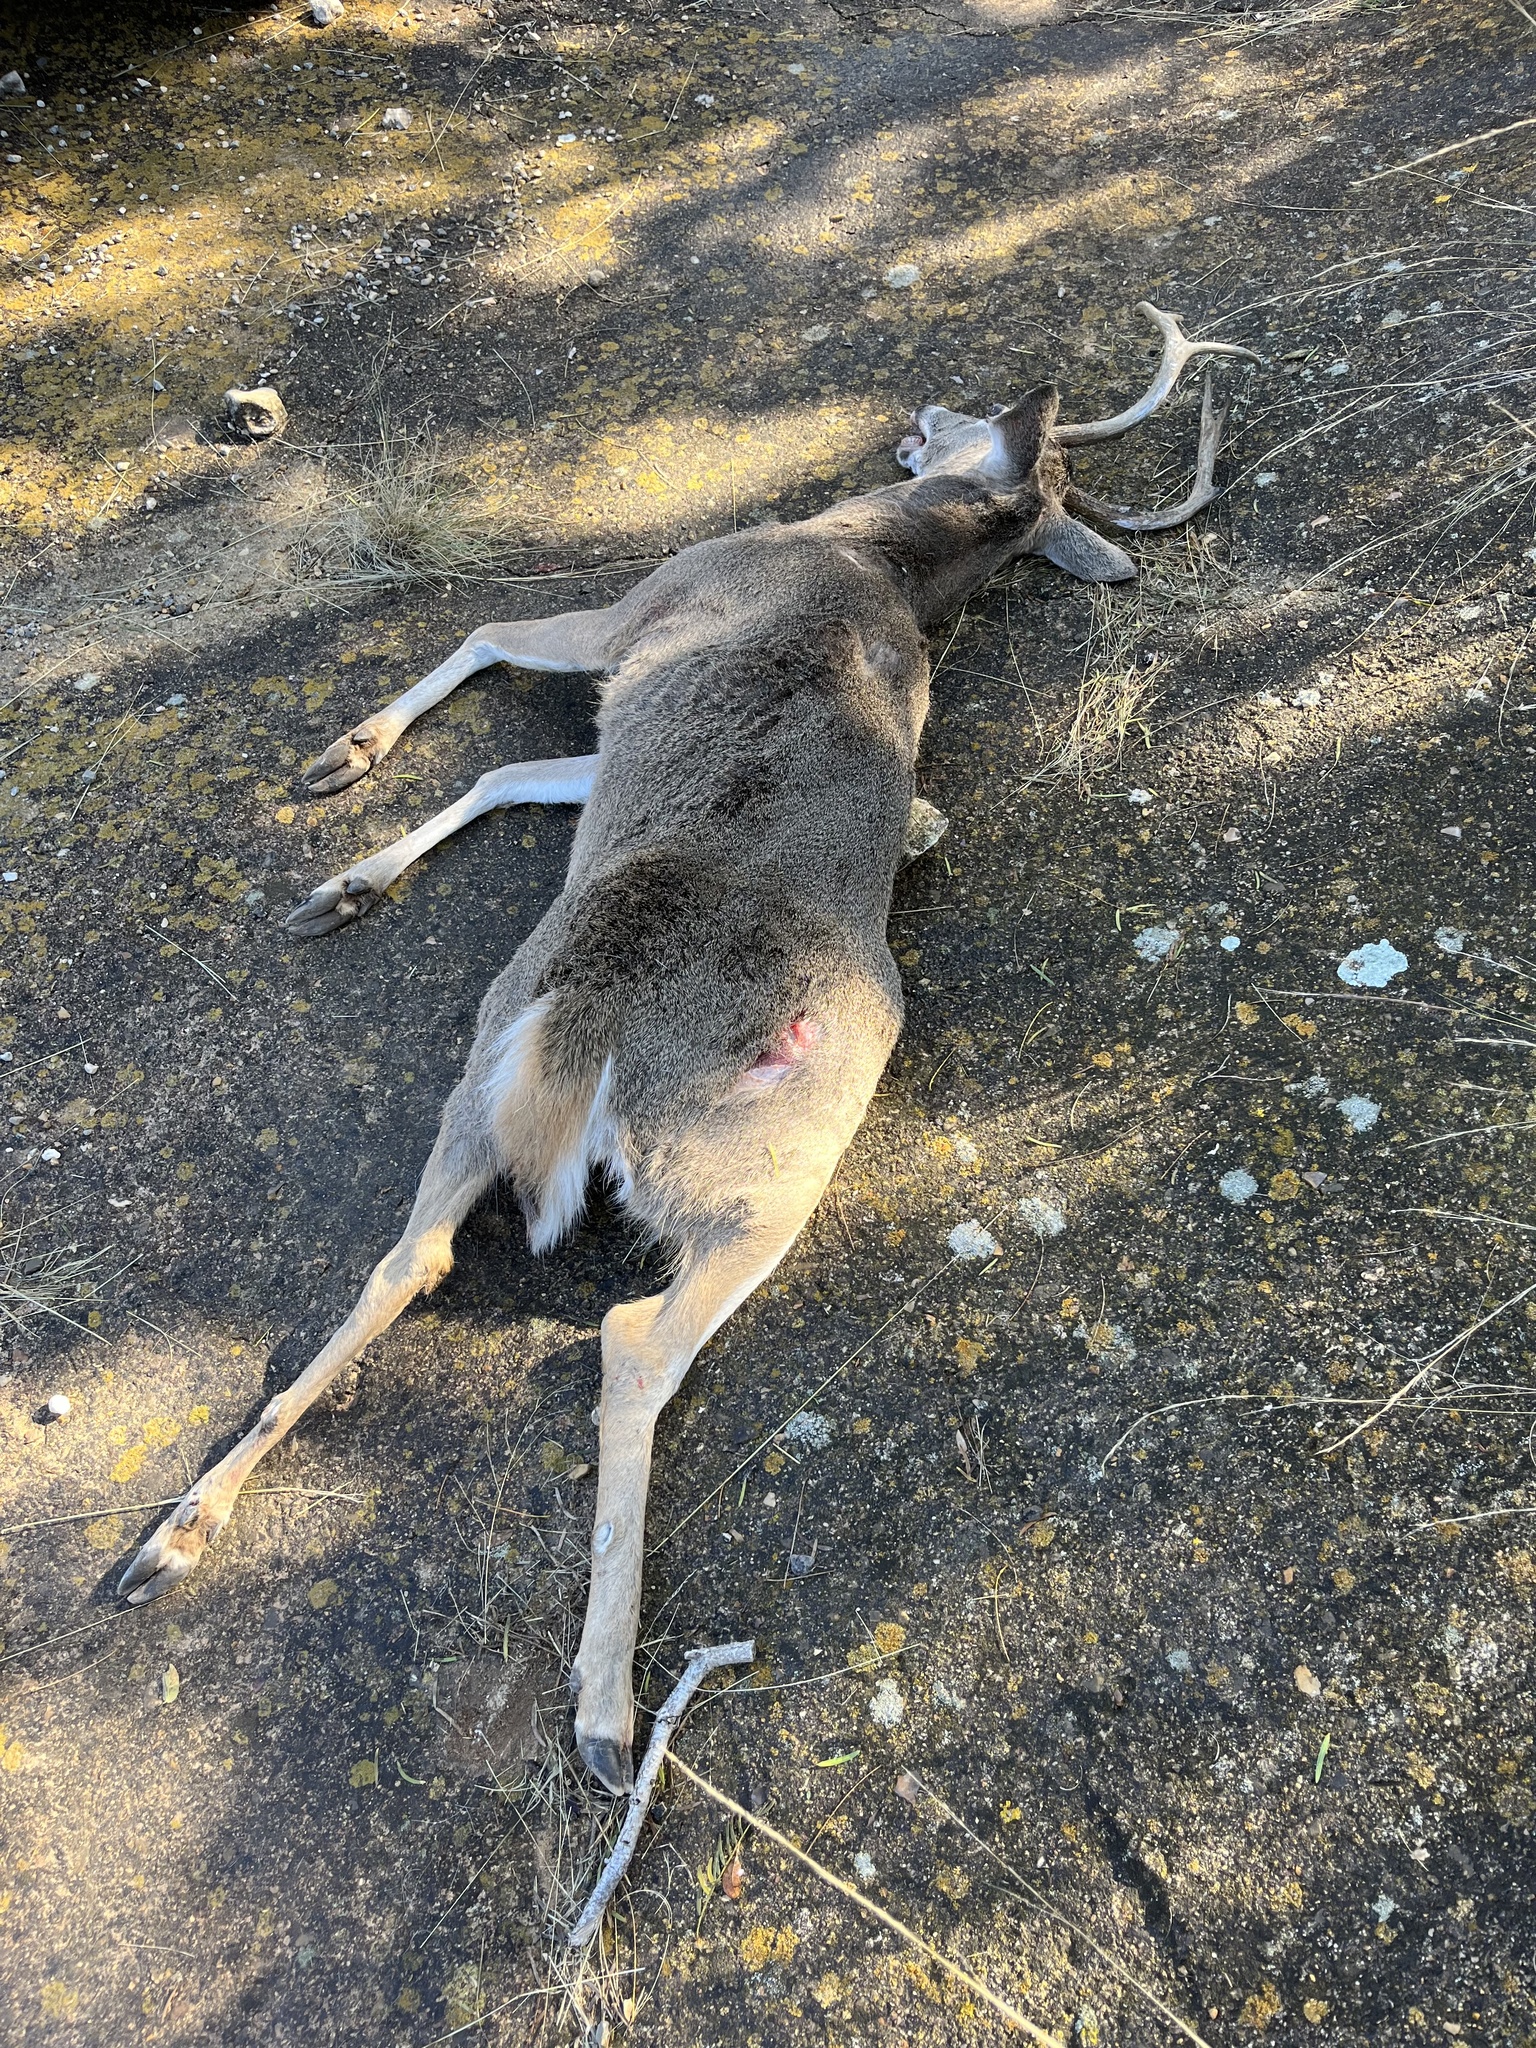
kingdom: Animalia
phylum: Chordata
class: Mammalia
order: Artiodactyla
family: Cervidae
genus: Odocoileus
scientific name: Odocoileus virginianus
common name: White-tailed deer
